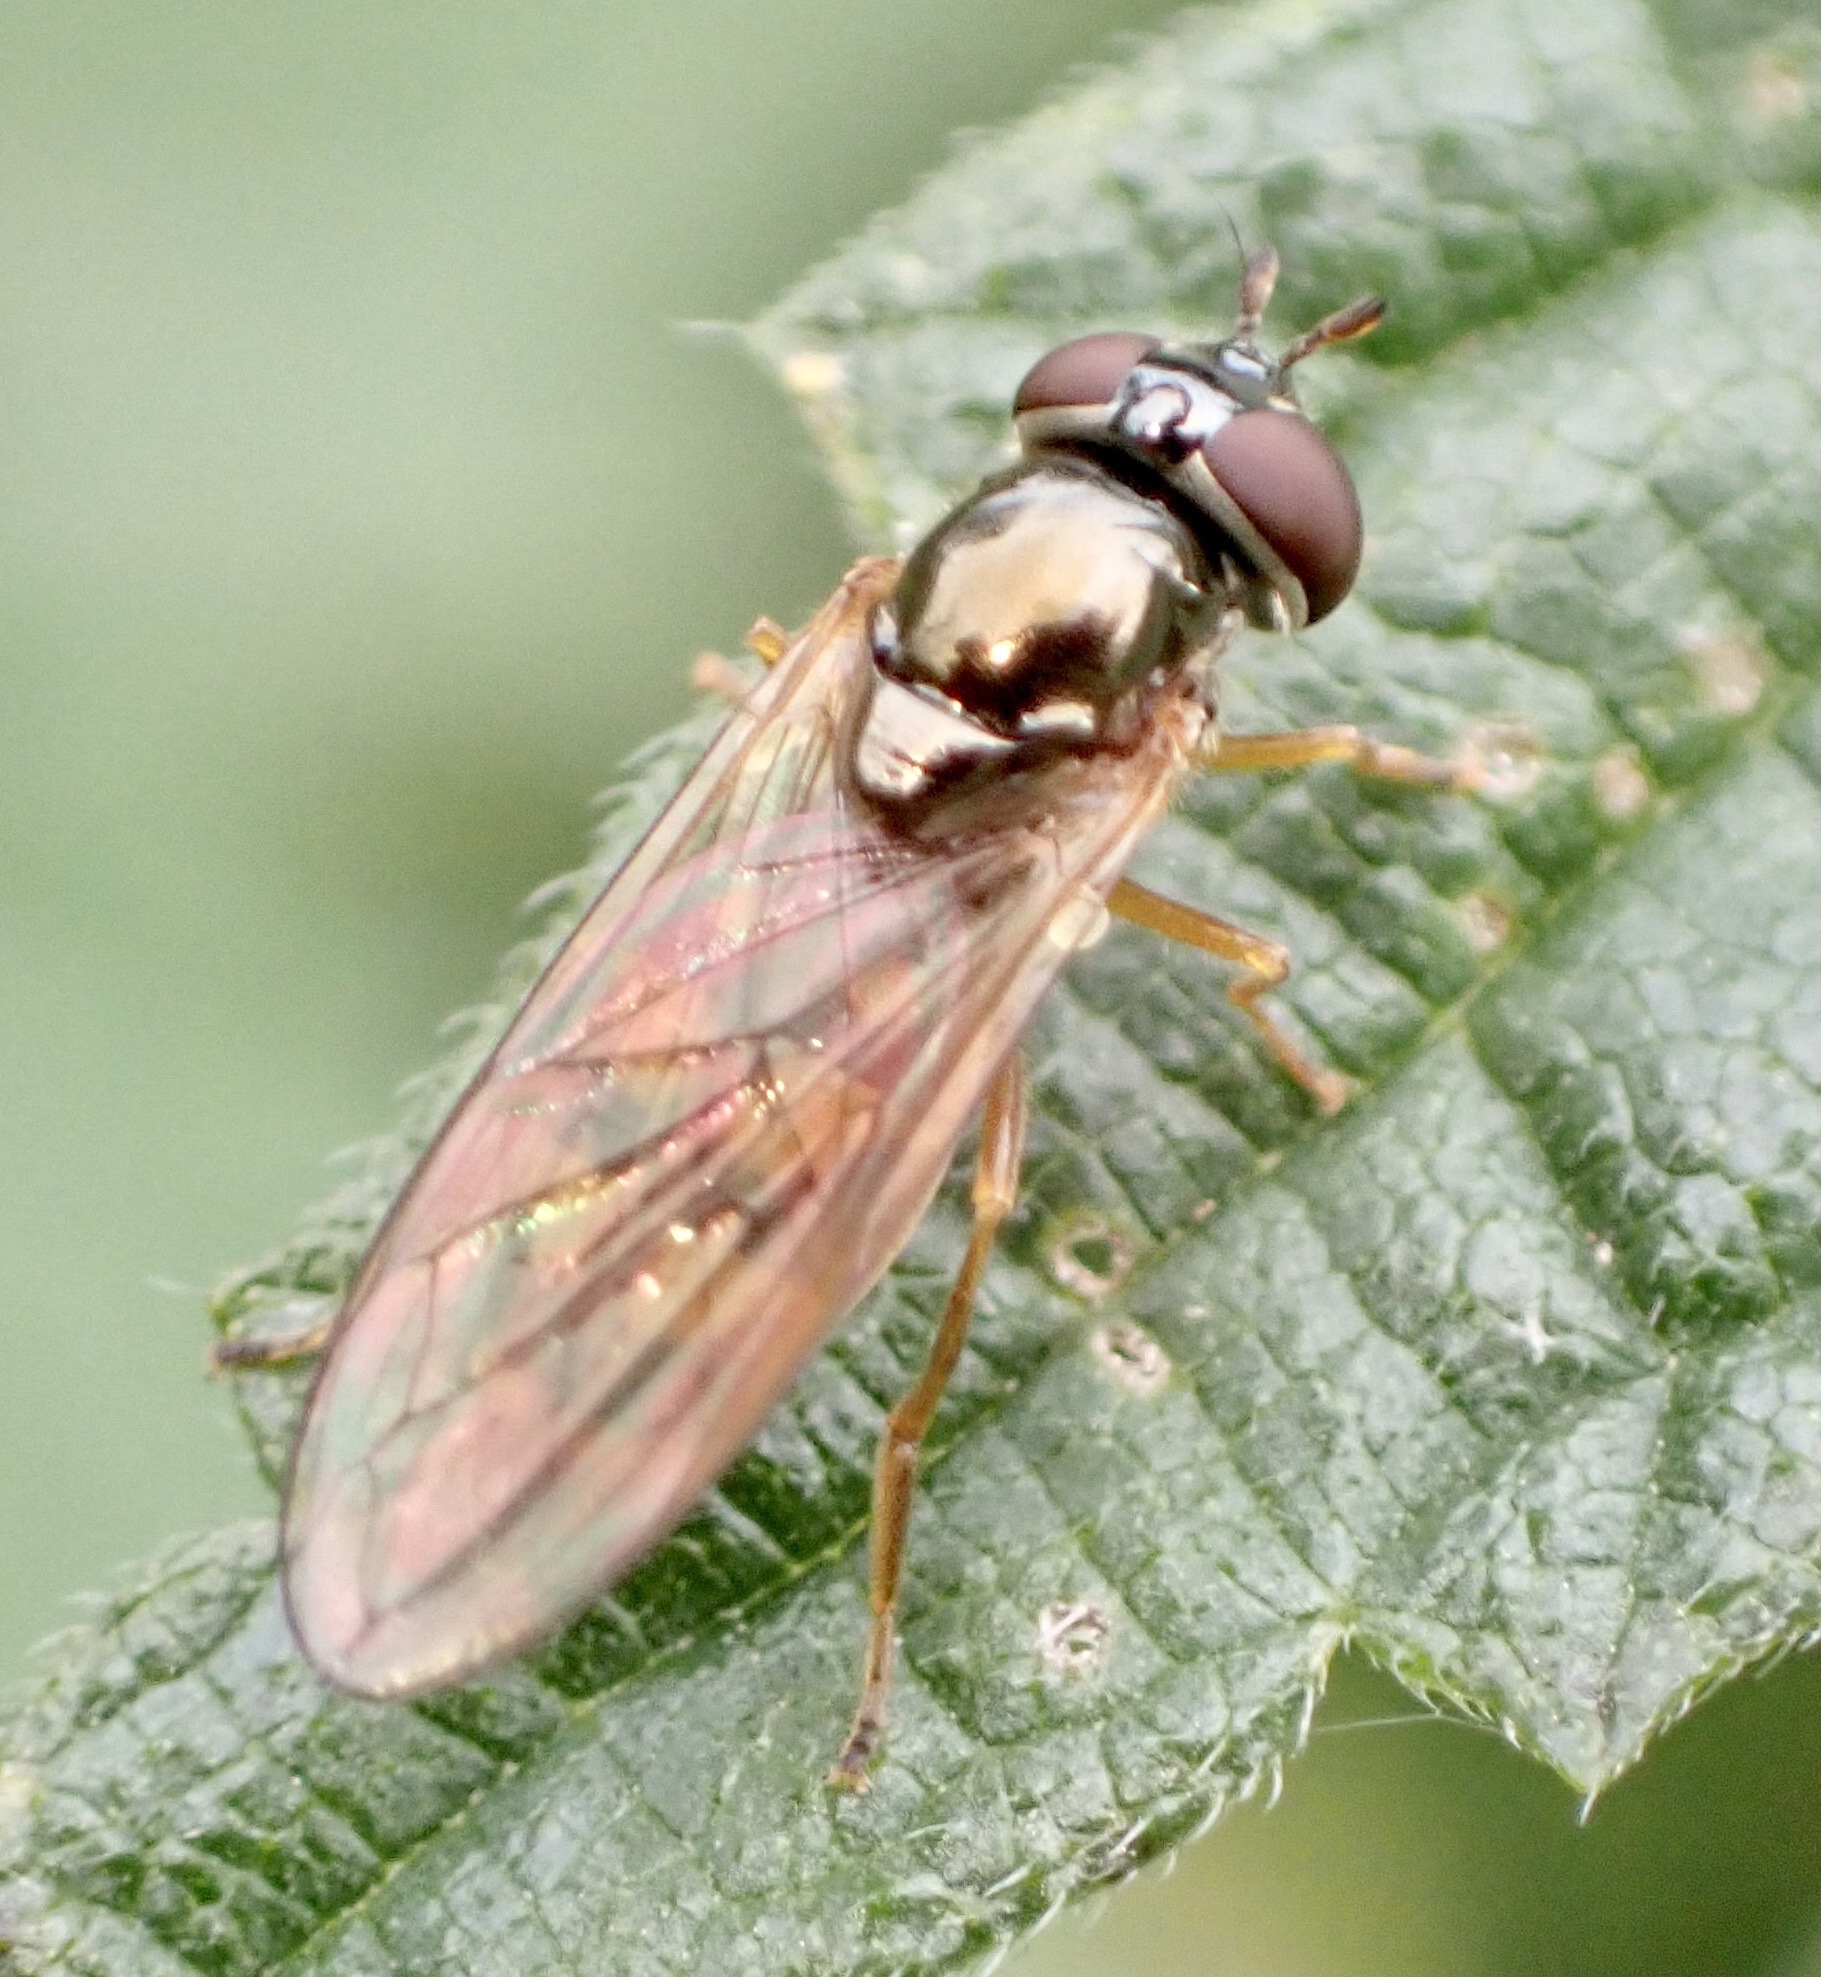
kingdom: Animalia
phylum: Arthropoda
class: Insecta
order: Diptera
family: Syrphidae
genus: Melanostoma
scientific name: Melanostoma mellina
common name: Hover fly
